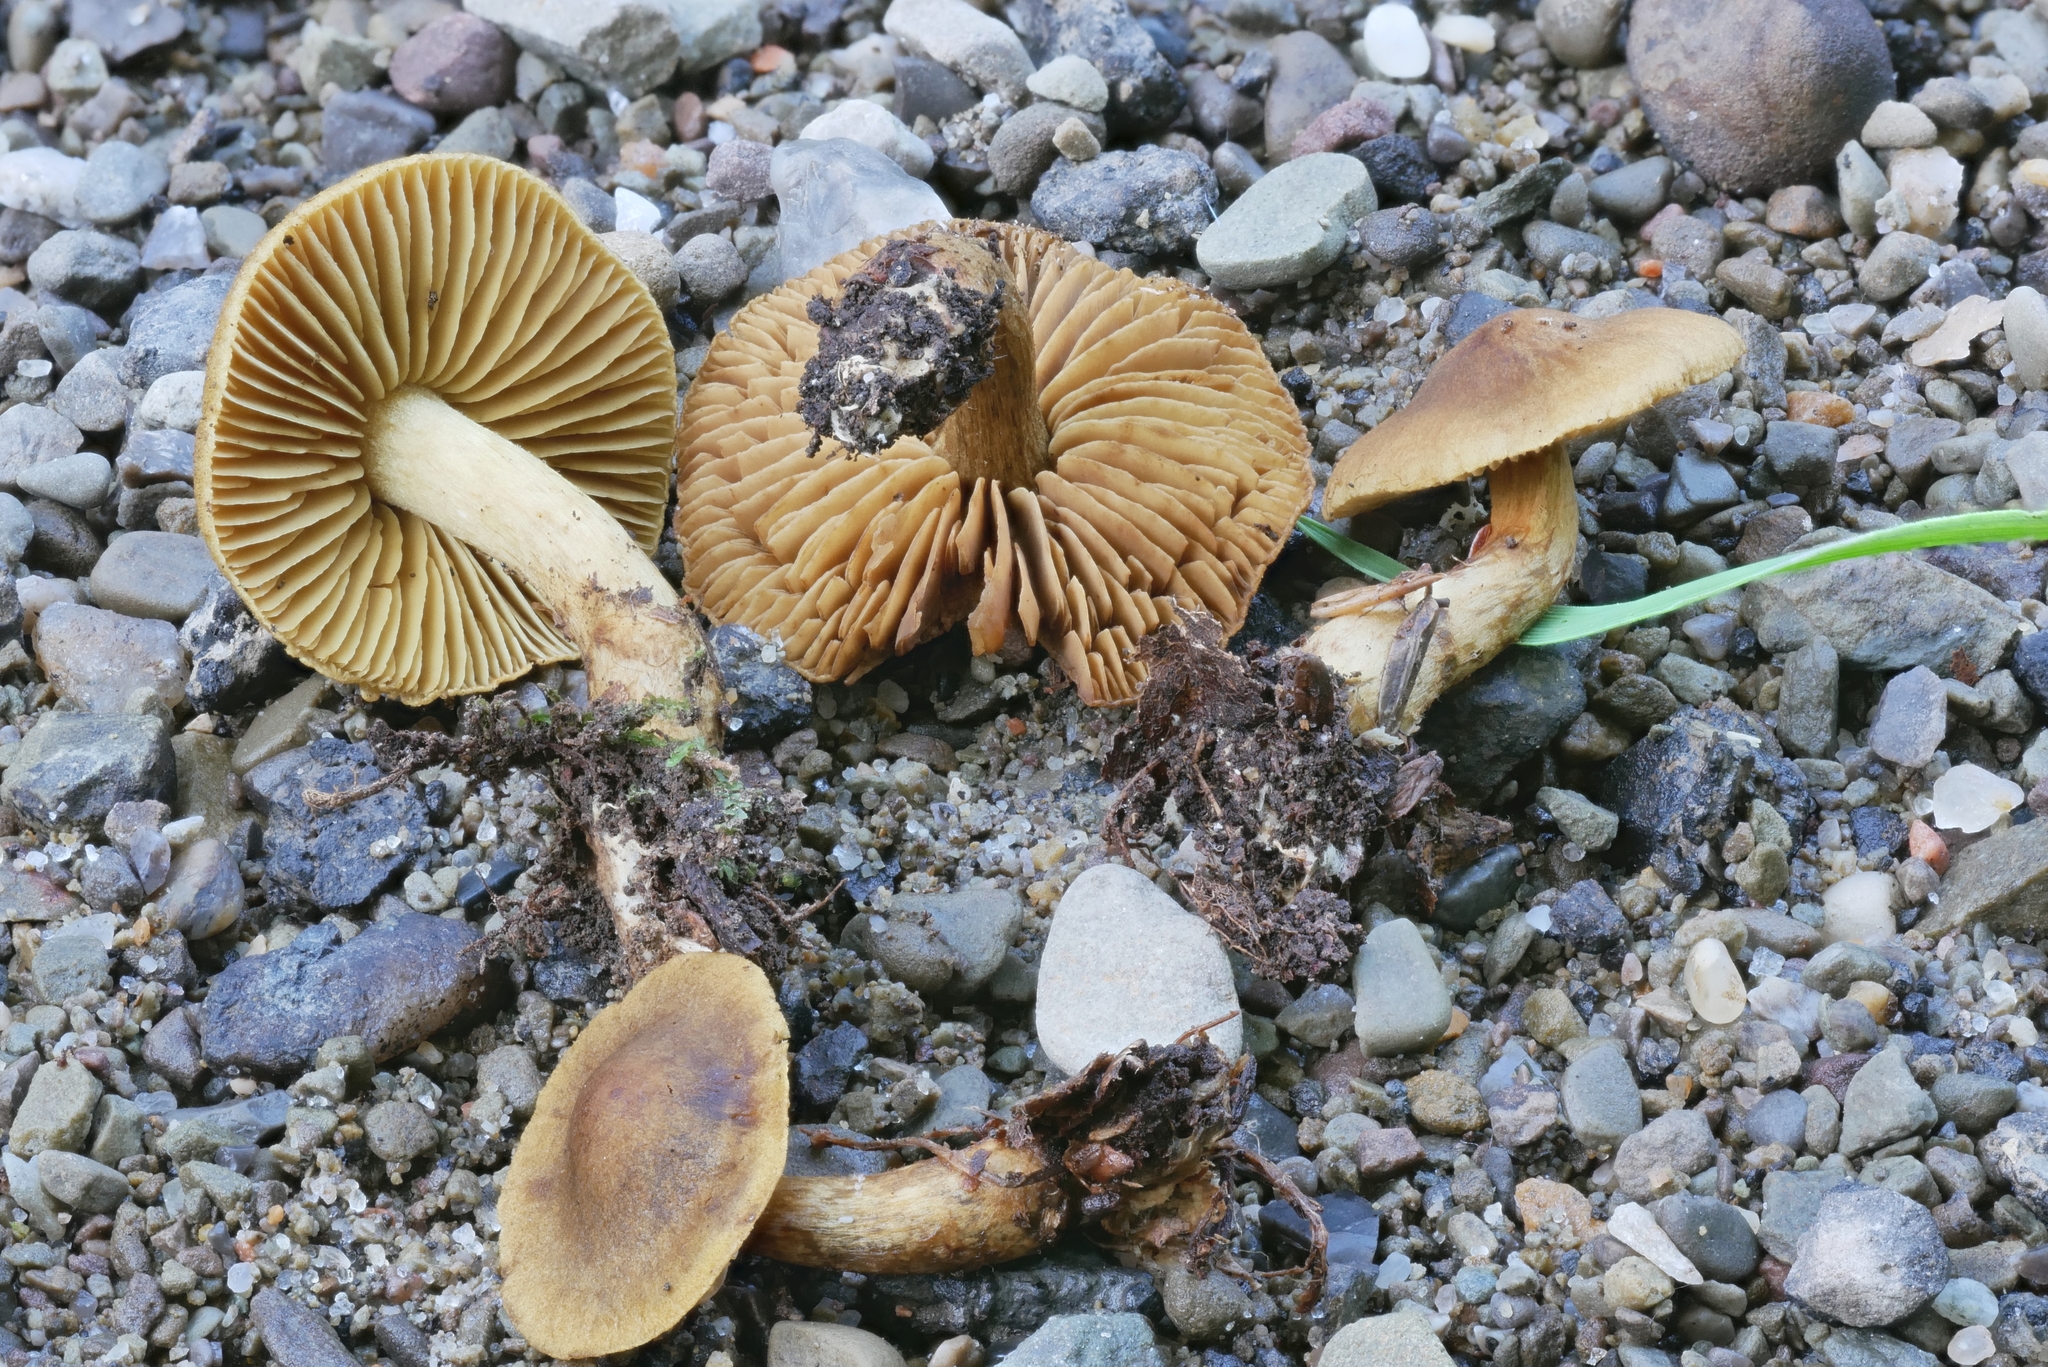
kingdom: Fungi
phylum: Basidiomycota
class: Agaricomycetes
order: Agaricales
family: Cortinariaceae
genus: Cortinarius
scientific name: Cortinarius olivaceoluteus
